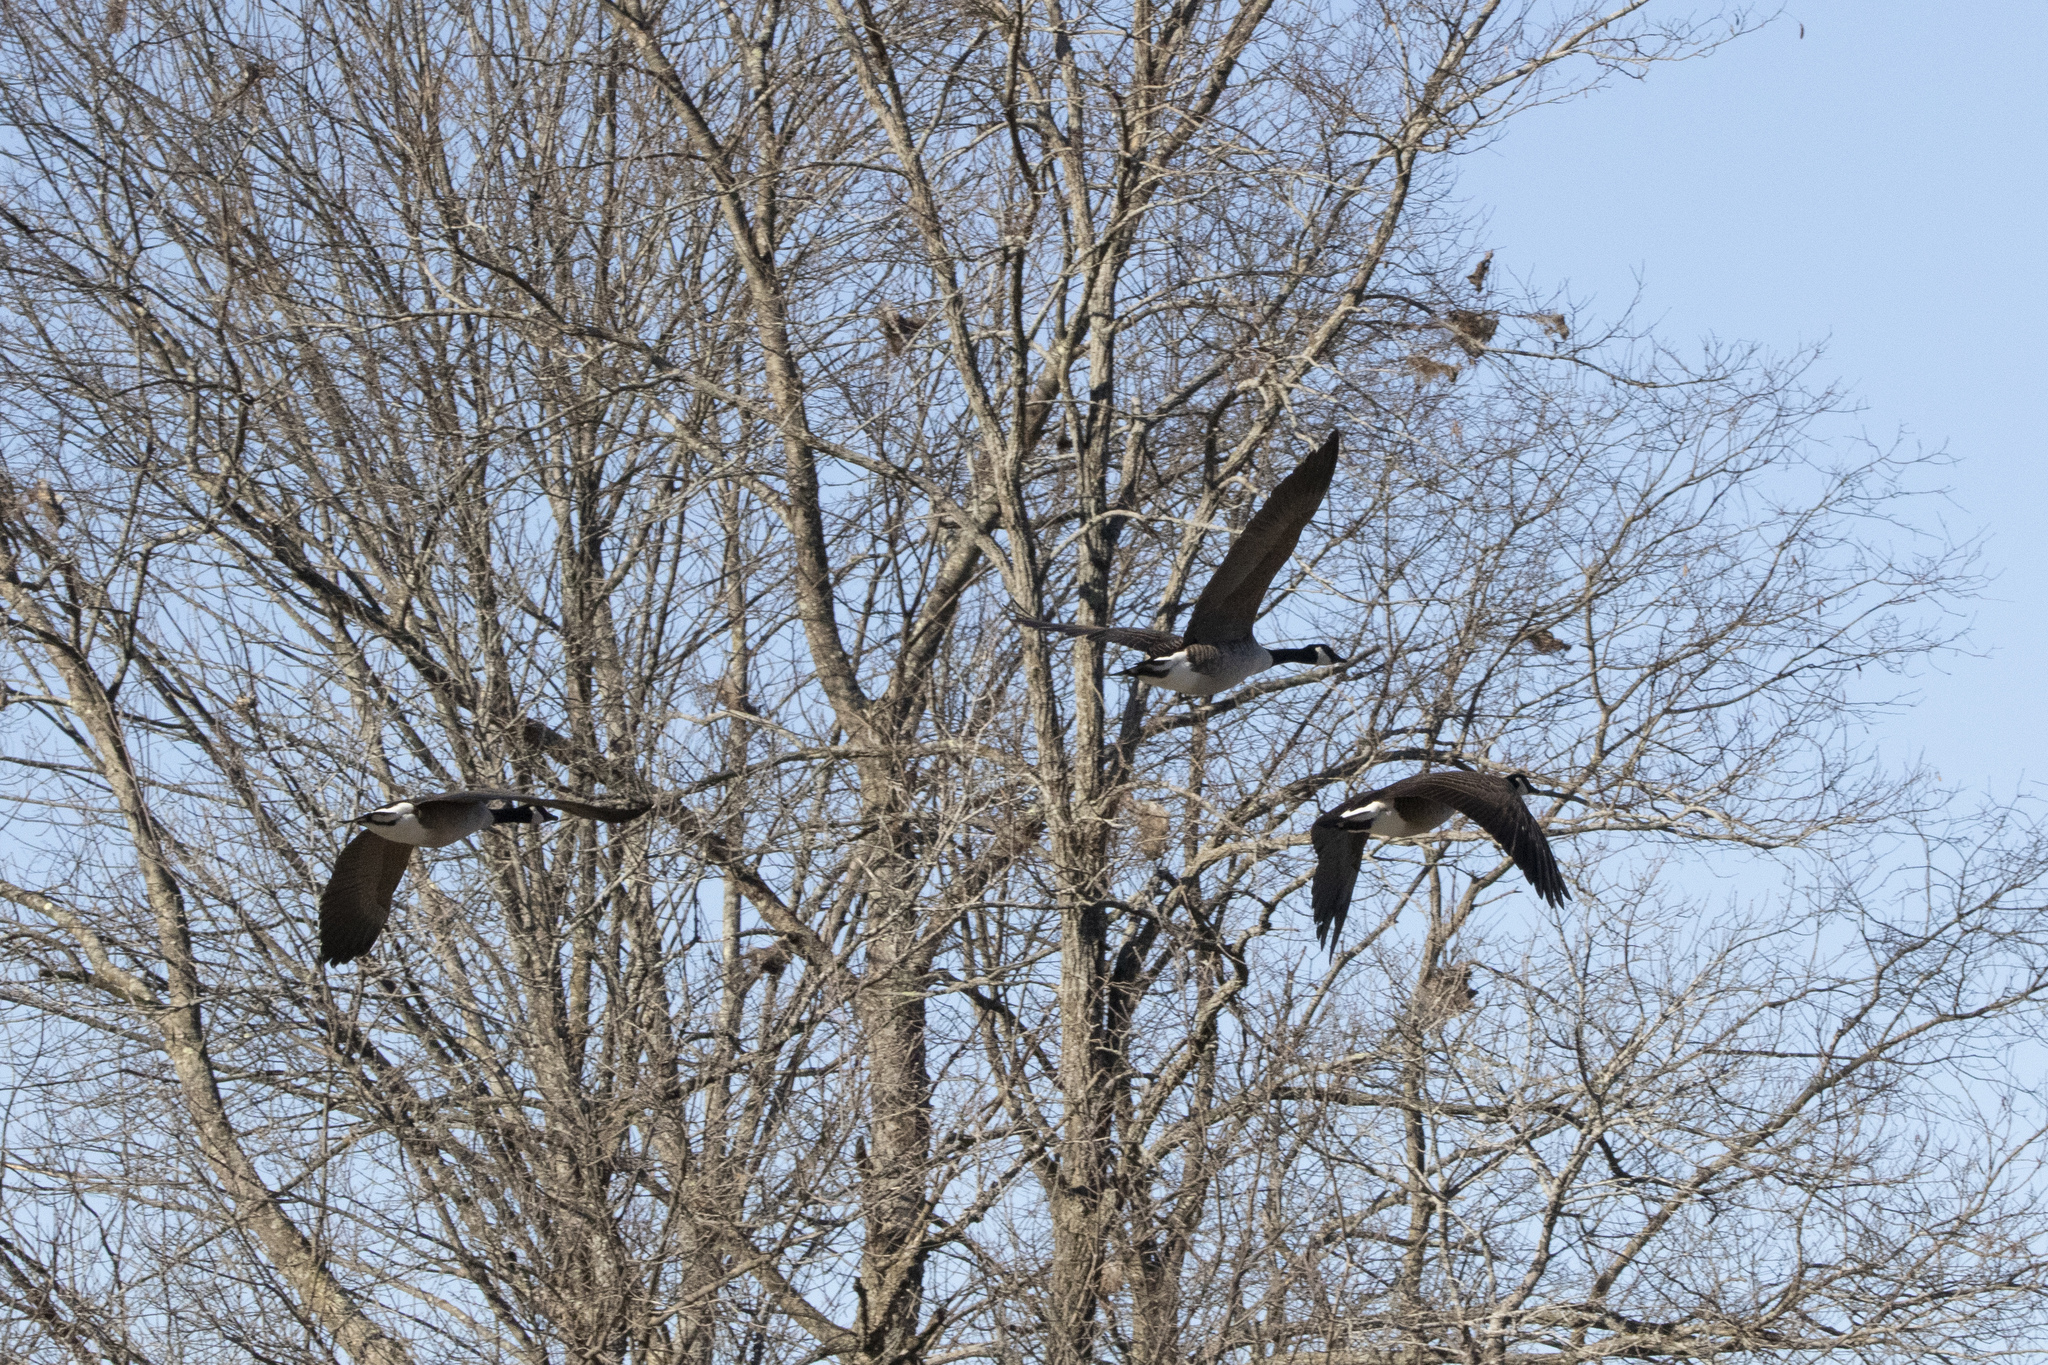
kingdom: Animalia
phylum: Chordata
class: Aves
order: Anseriformes
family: Anatidae
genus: Branta
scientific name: Branta canadensis
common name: Canada goose
